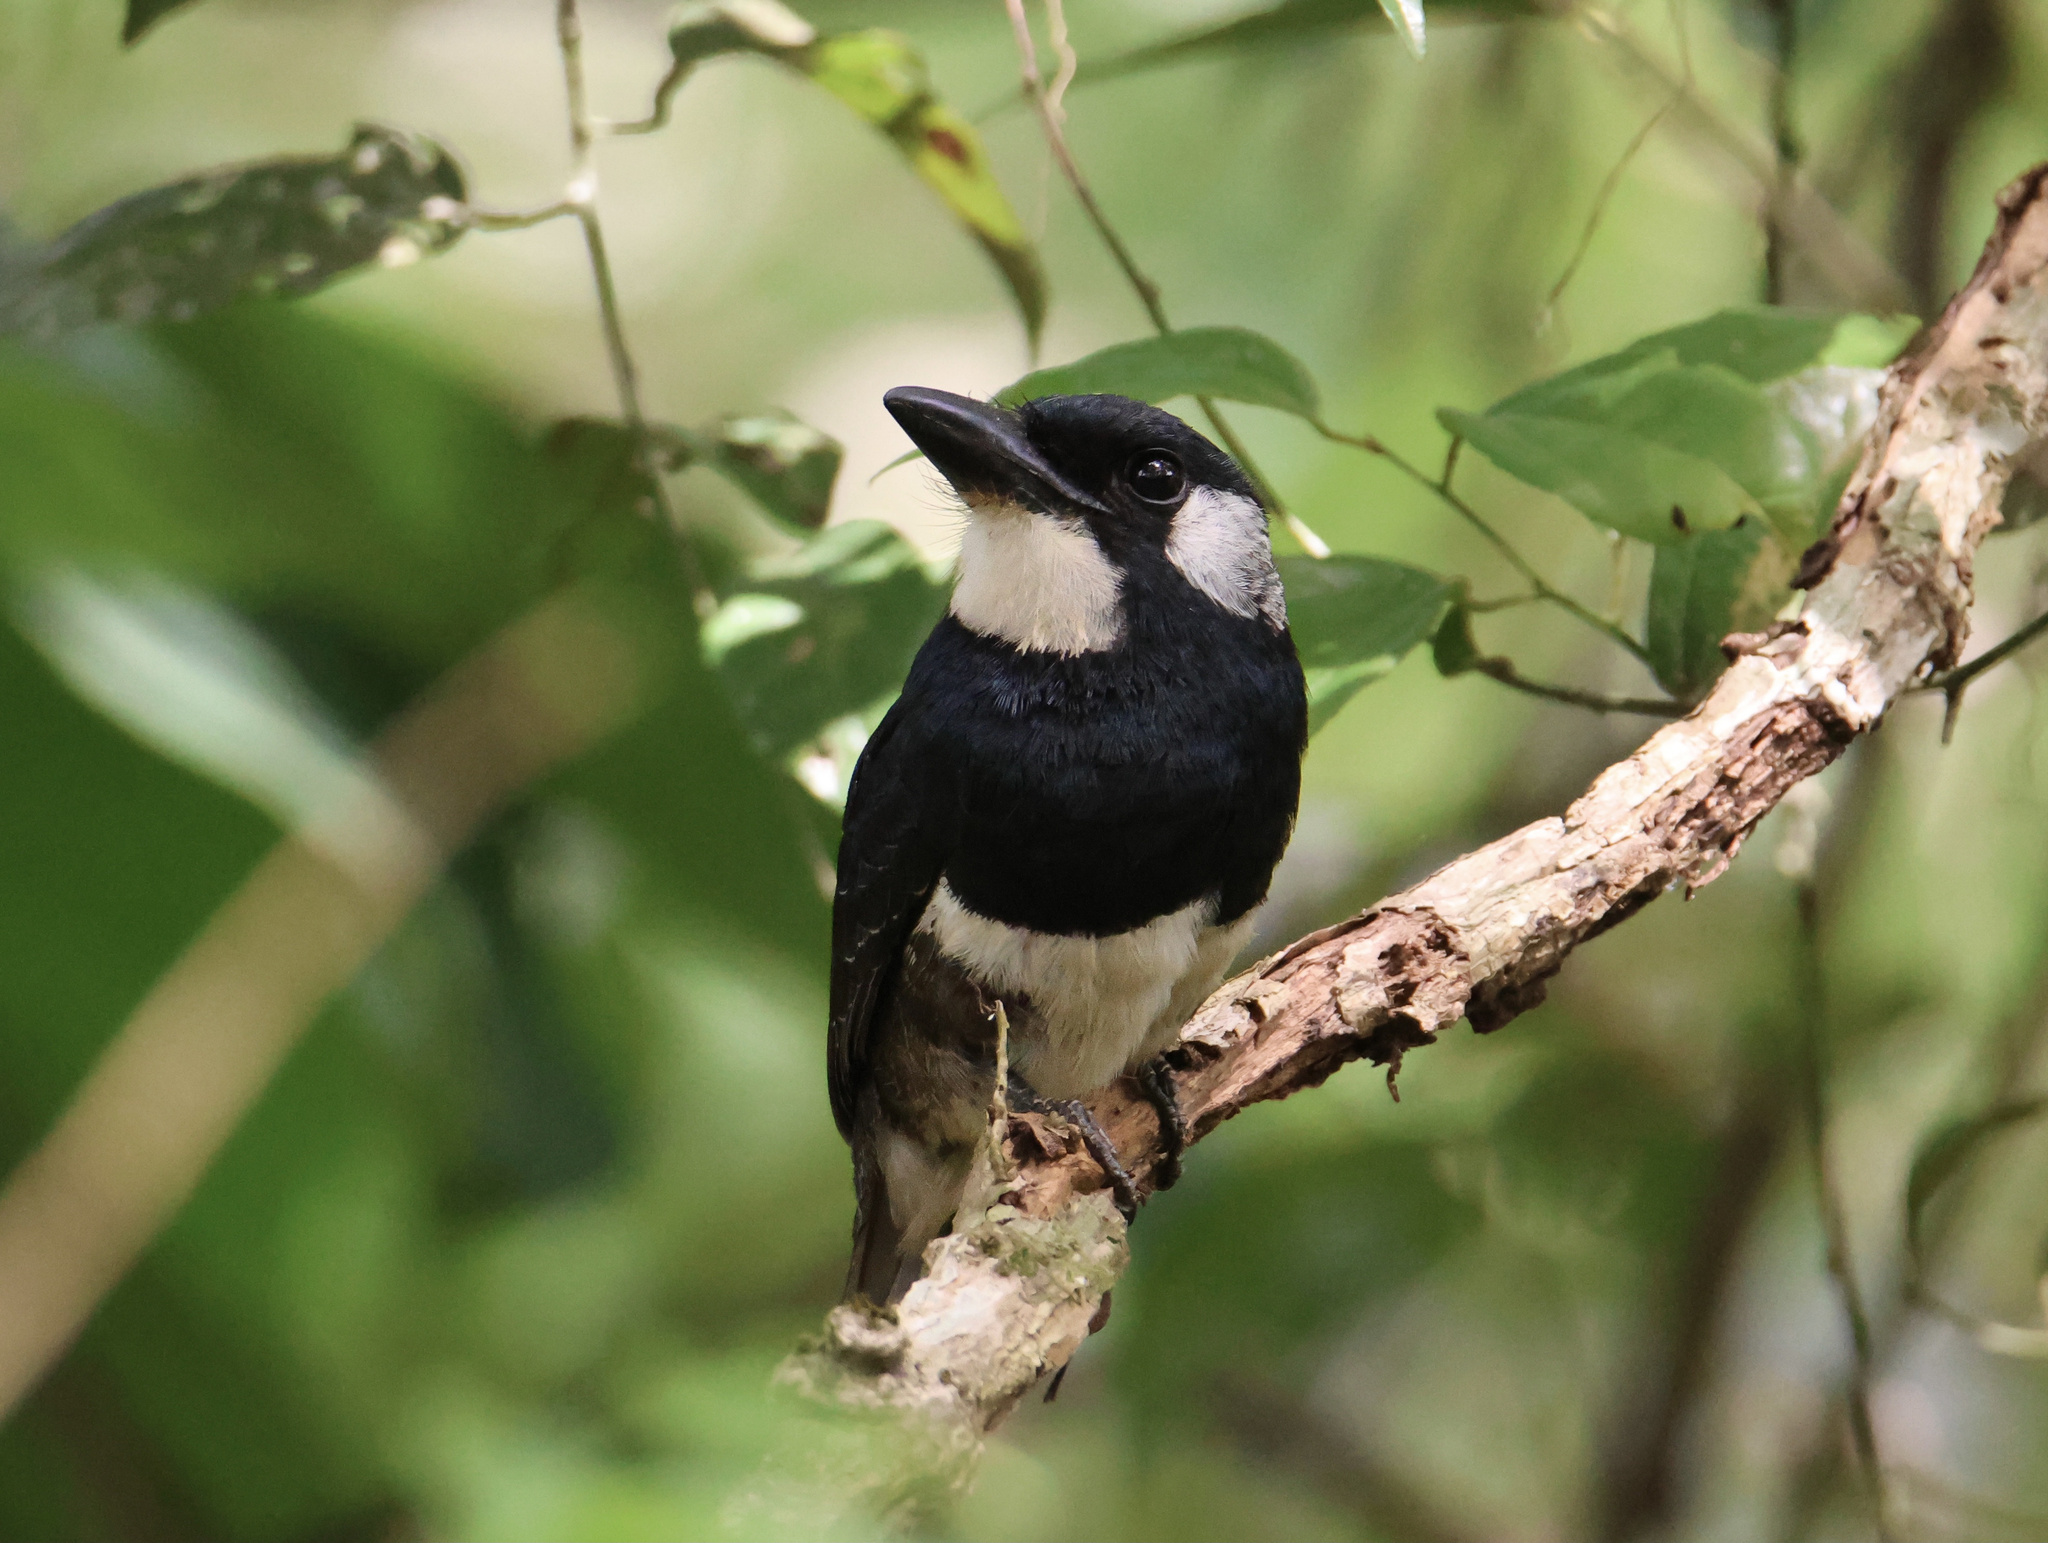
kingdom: Animalia
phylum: Chordata
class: Aves
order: Piciformes
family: Bucconidae
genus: Notharchus
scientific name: Notharchus pectoralis
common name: Black-breasted puffbird
